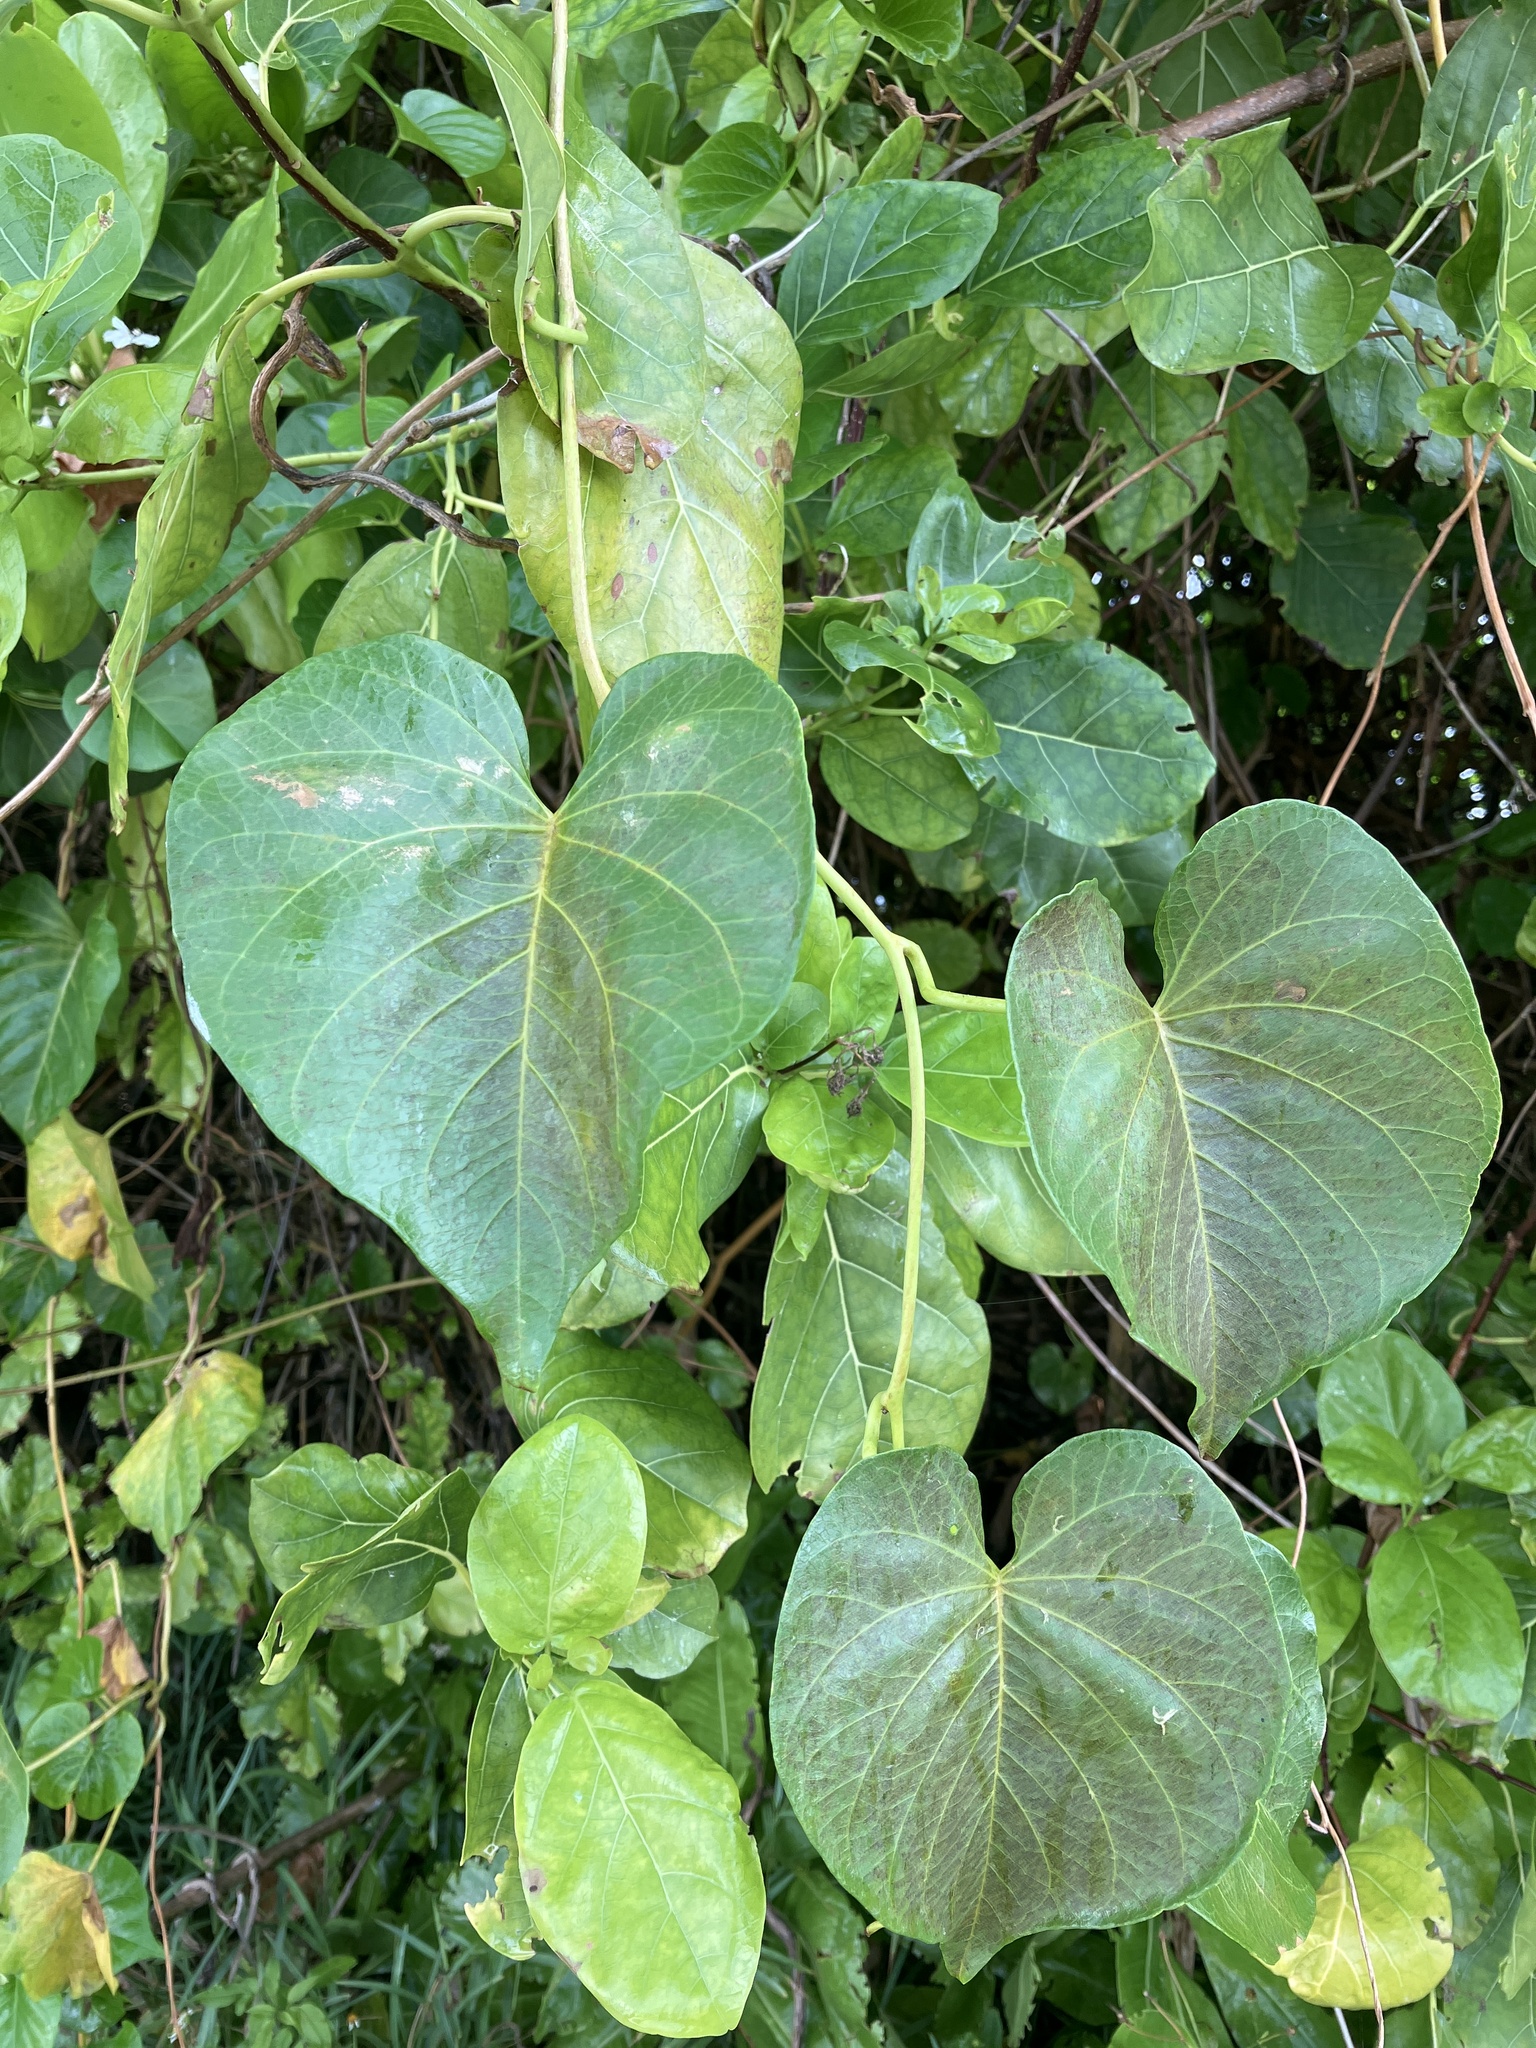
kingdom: Plantae
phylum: Tracheophyta
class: Magnoliopsida
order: Solanales
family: Convolvulaceae
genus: Ipomoea
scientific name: Ipomoea violacea
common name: Beach moonflower
